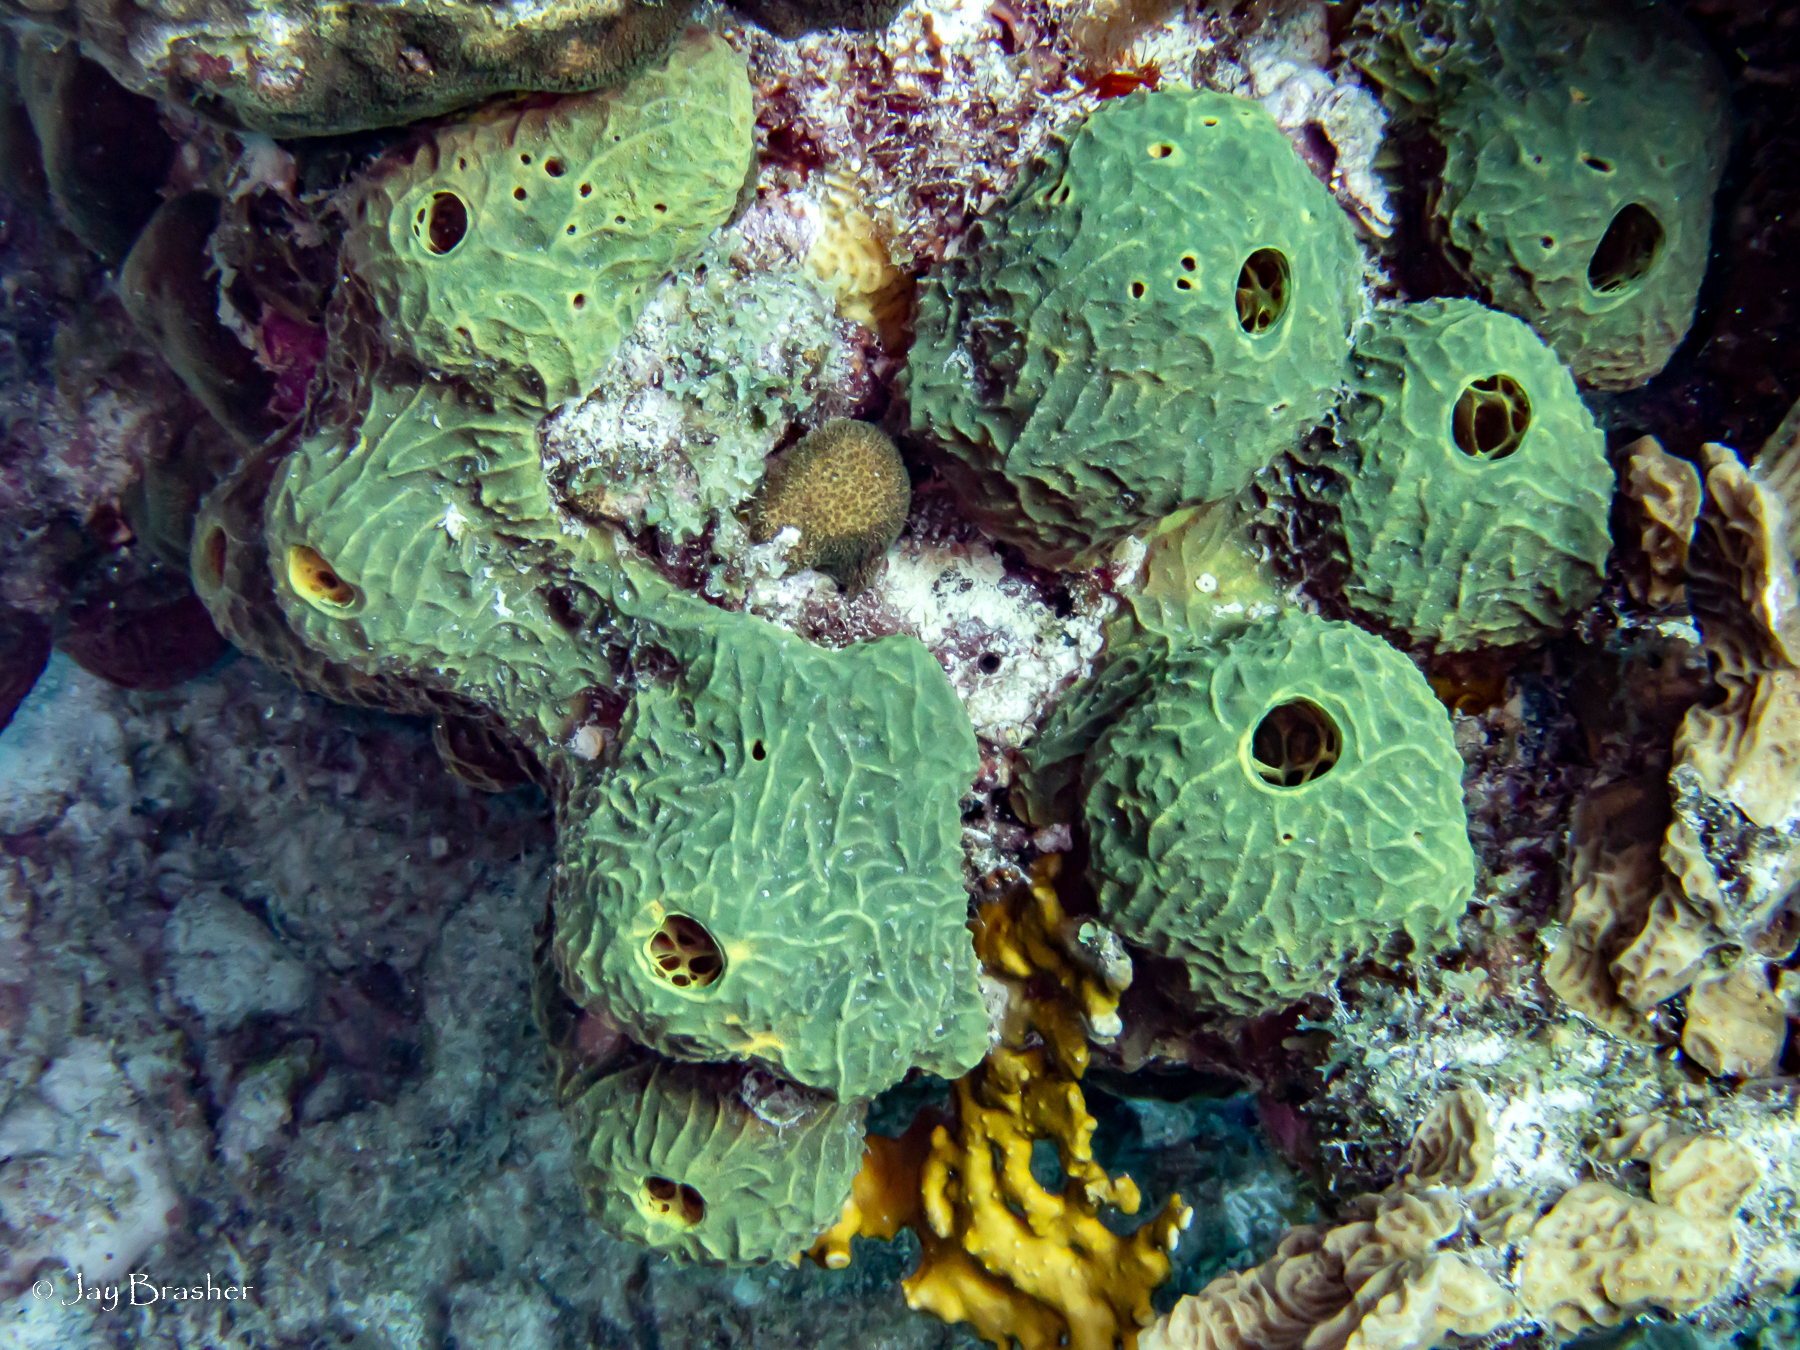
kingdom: Animalia
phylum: Cnidaria
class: Anthozoa
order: Scleractinia
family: Agariciidae
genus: Agaricia
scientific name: Agaricia agaricites
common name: Lettuce coral
